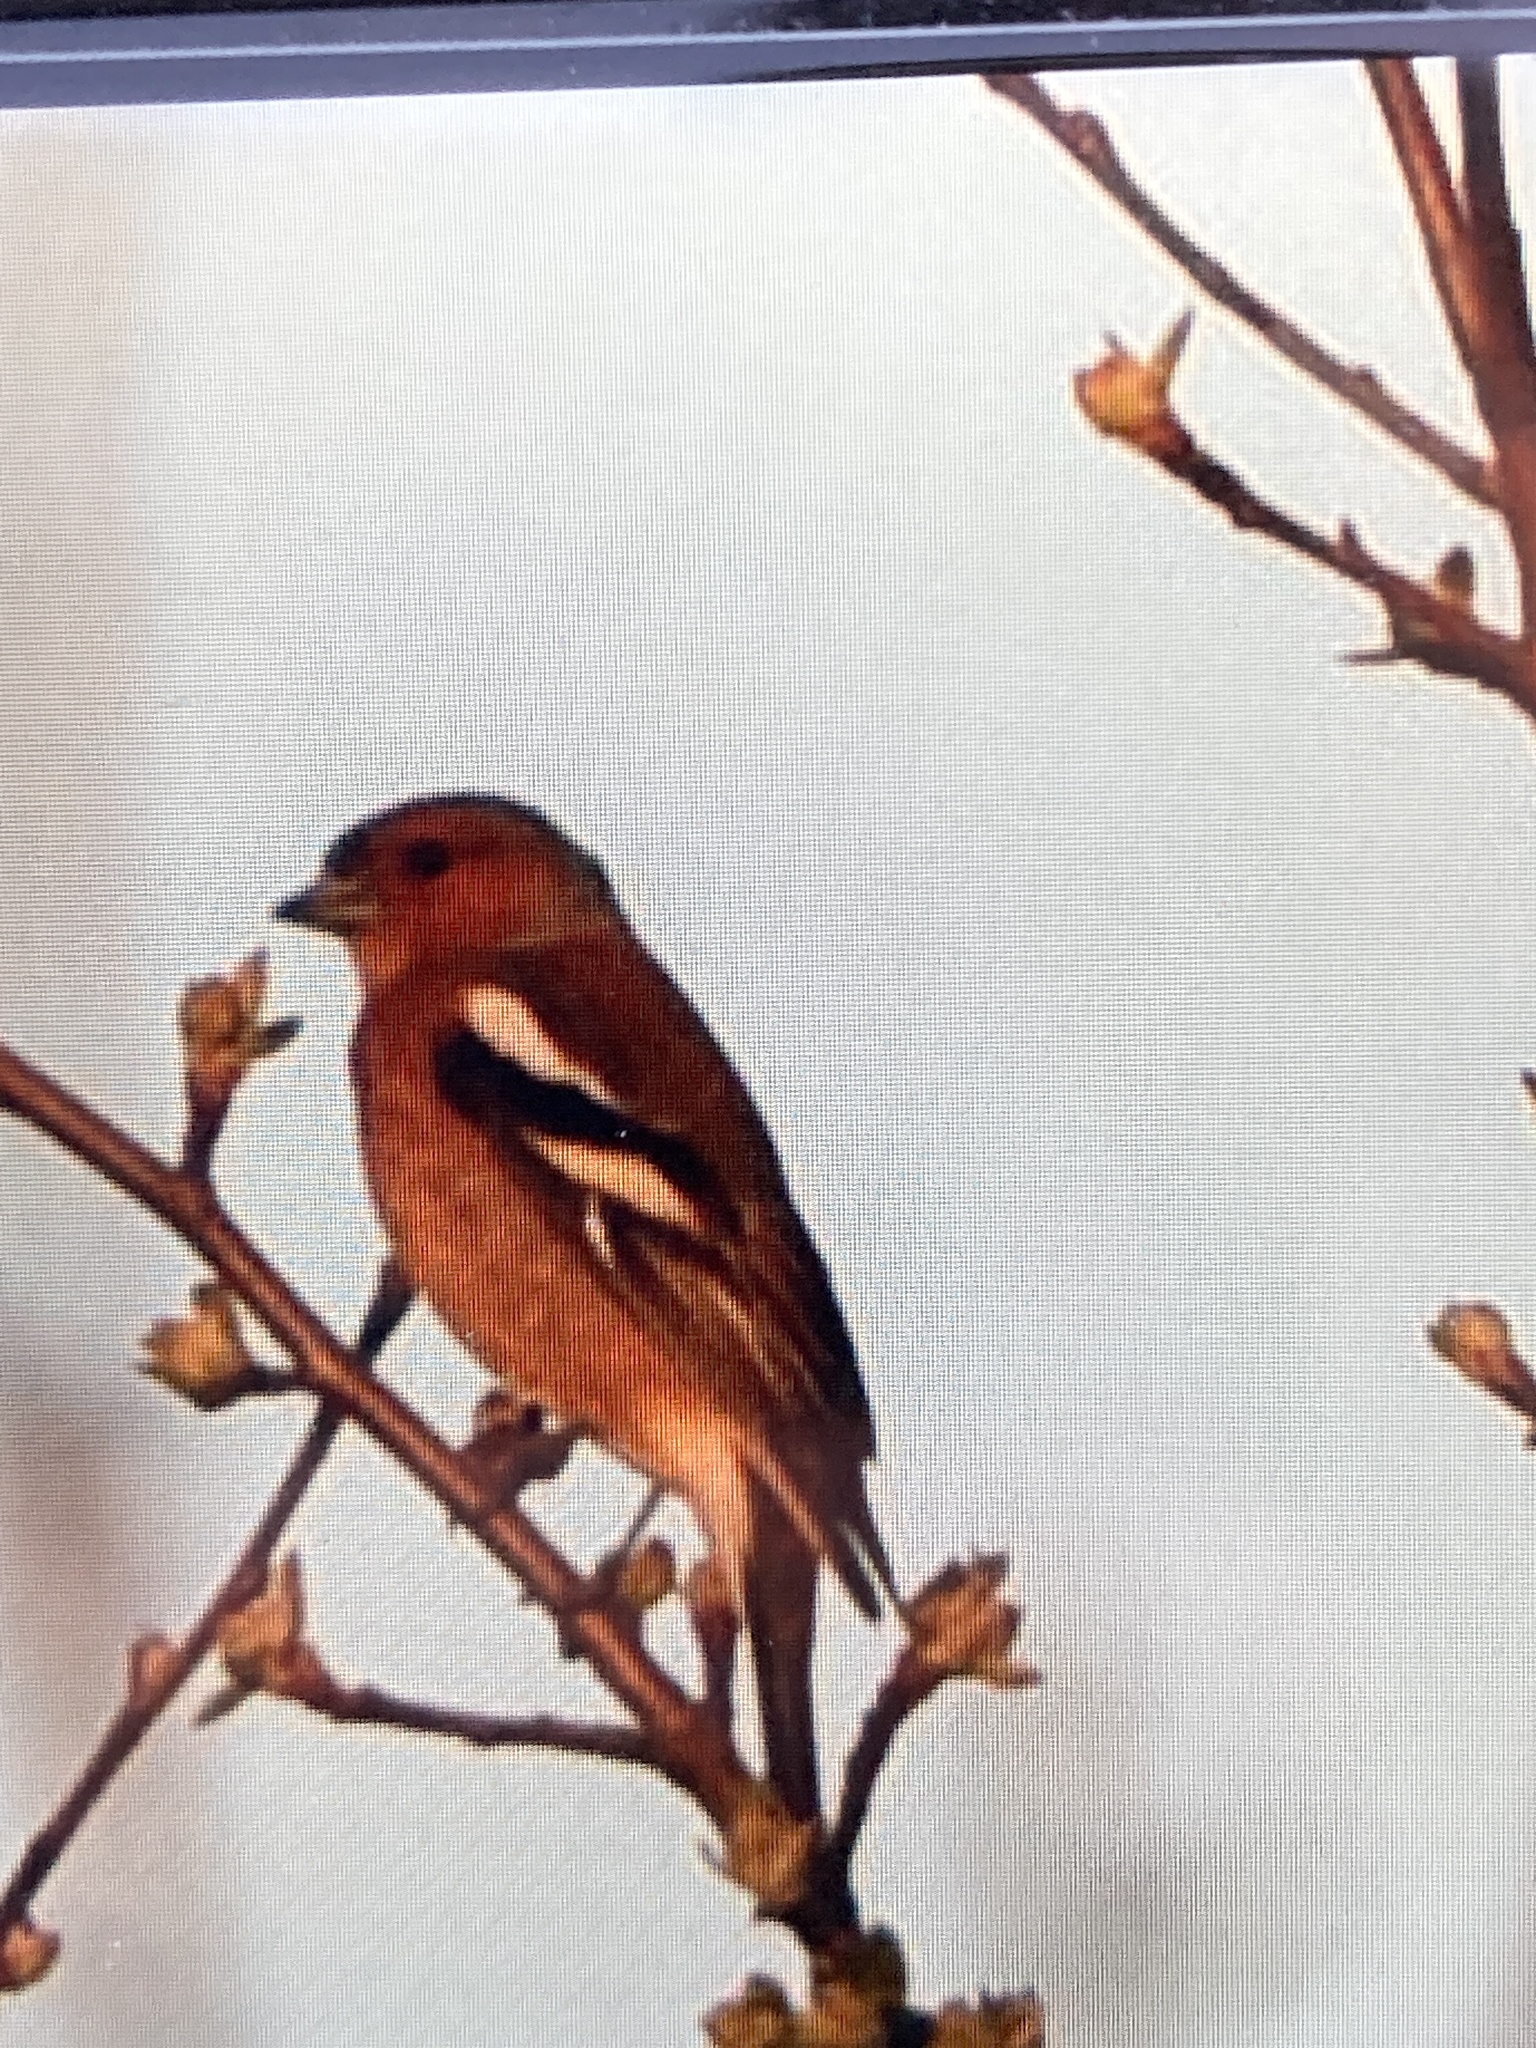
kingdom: Animalia
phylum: Chordata
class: Aves
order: Passeriformes
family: Fringillidae
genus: Fringilla
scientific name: Fringilla coelebs
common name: Common chaffinch
